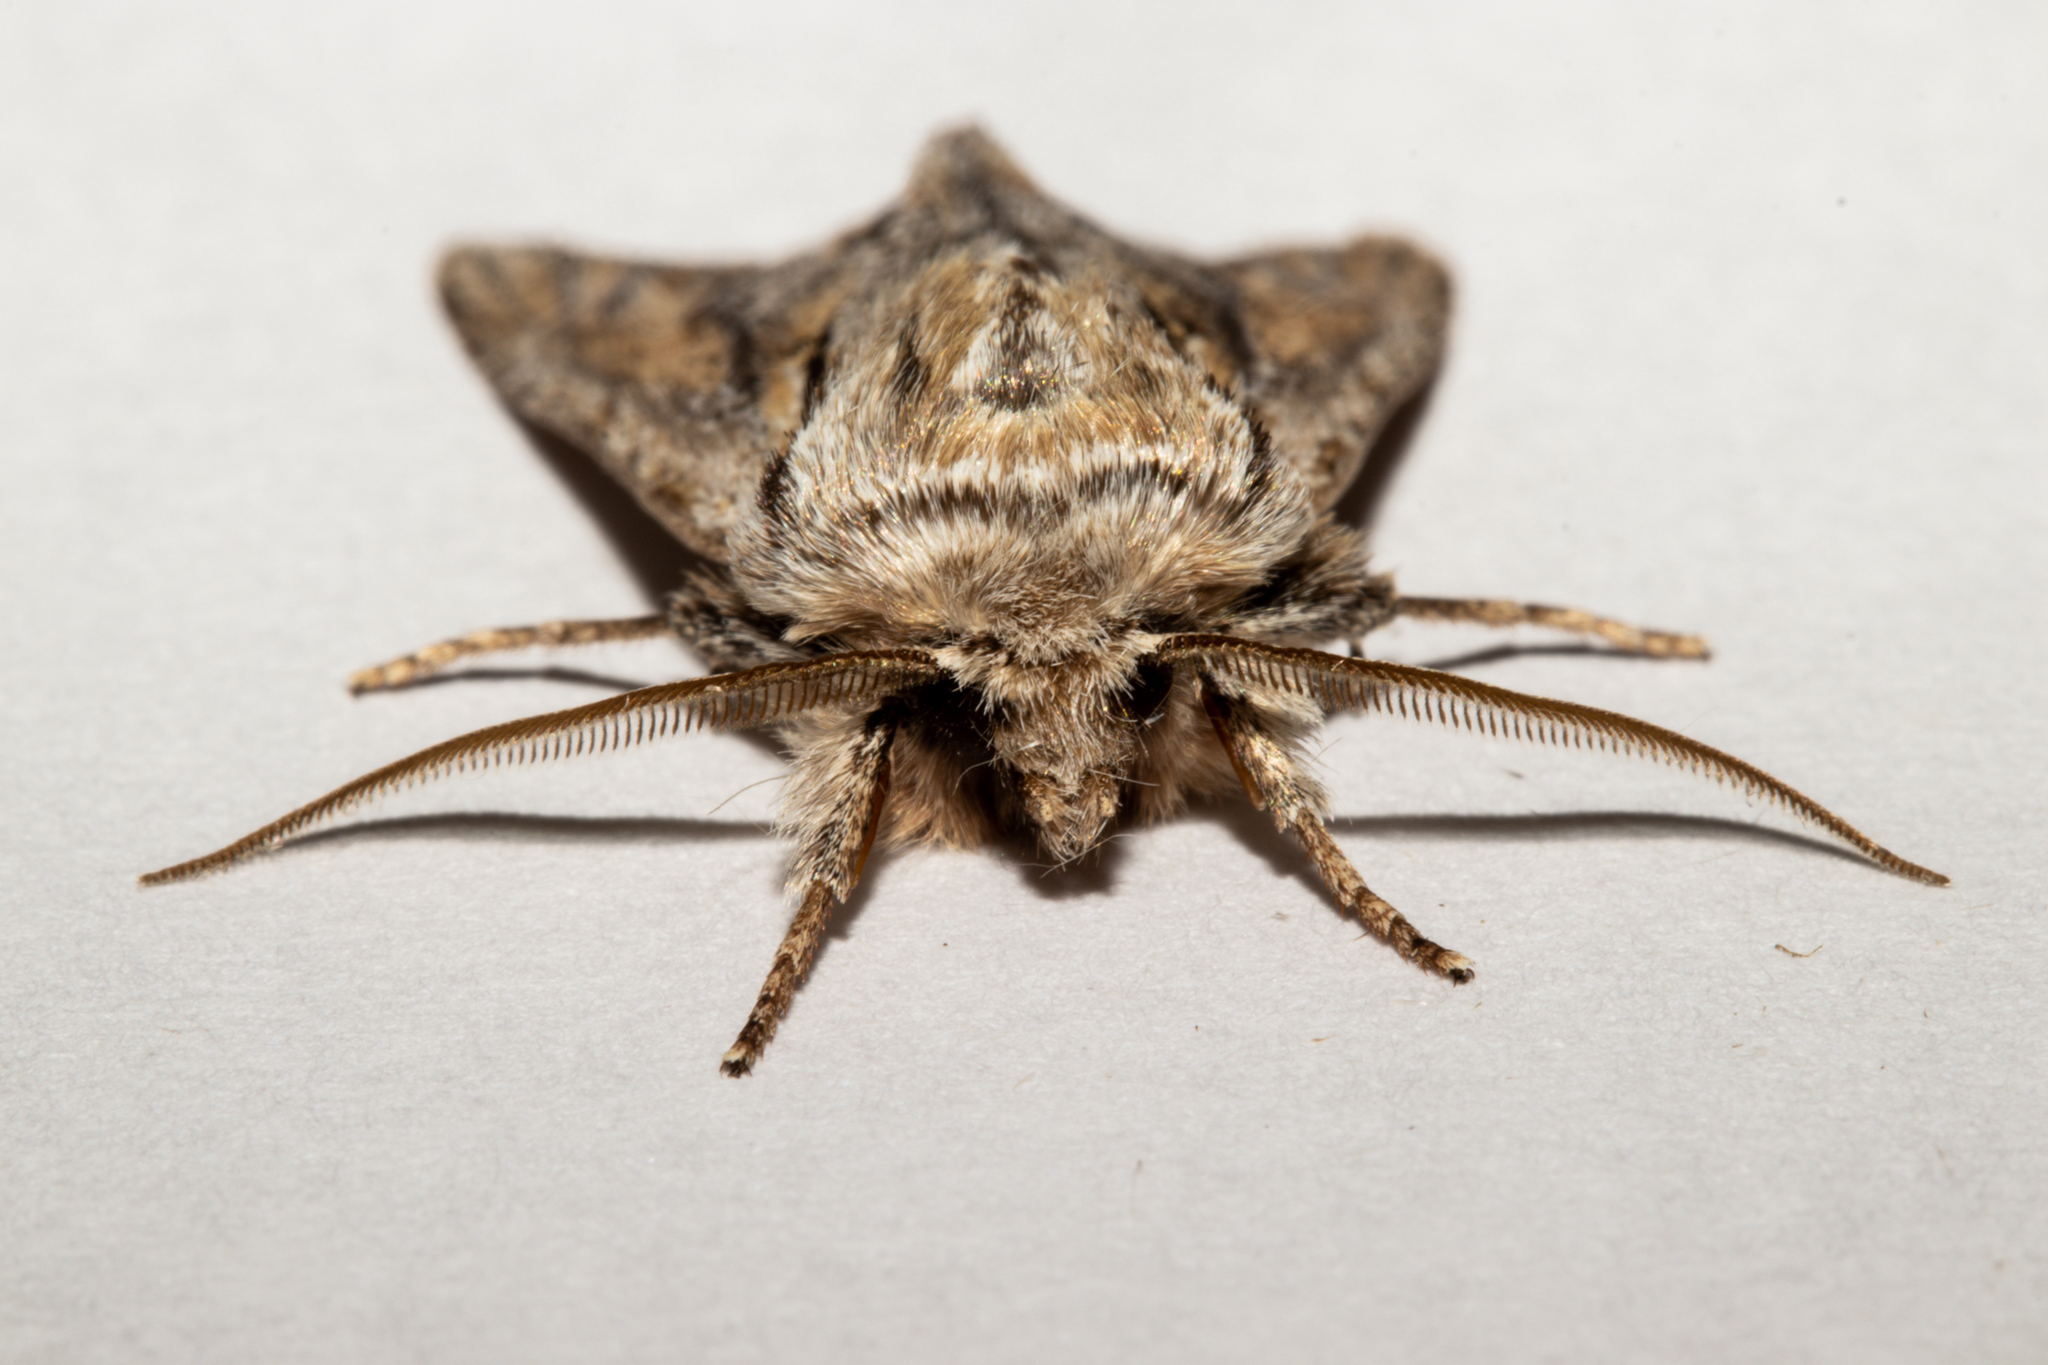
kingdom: Animalia
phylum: Arthropoda
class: Insecta
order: Lepidoptera
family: Noctuidae
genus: Ichneutica
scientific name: Ichneutica
